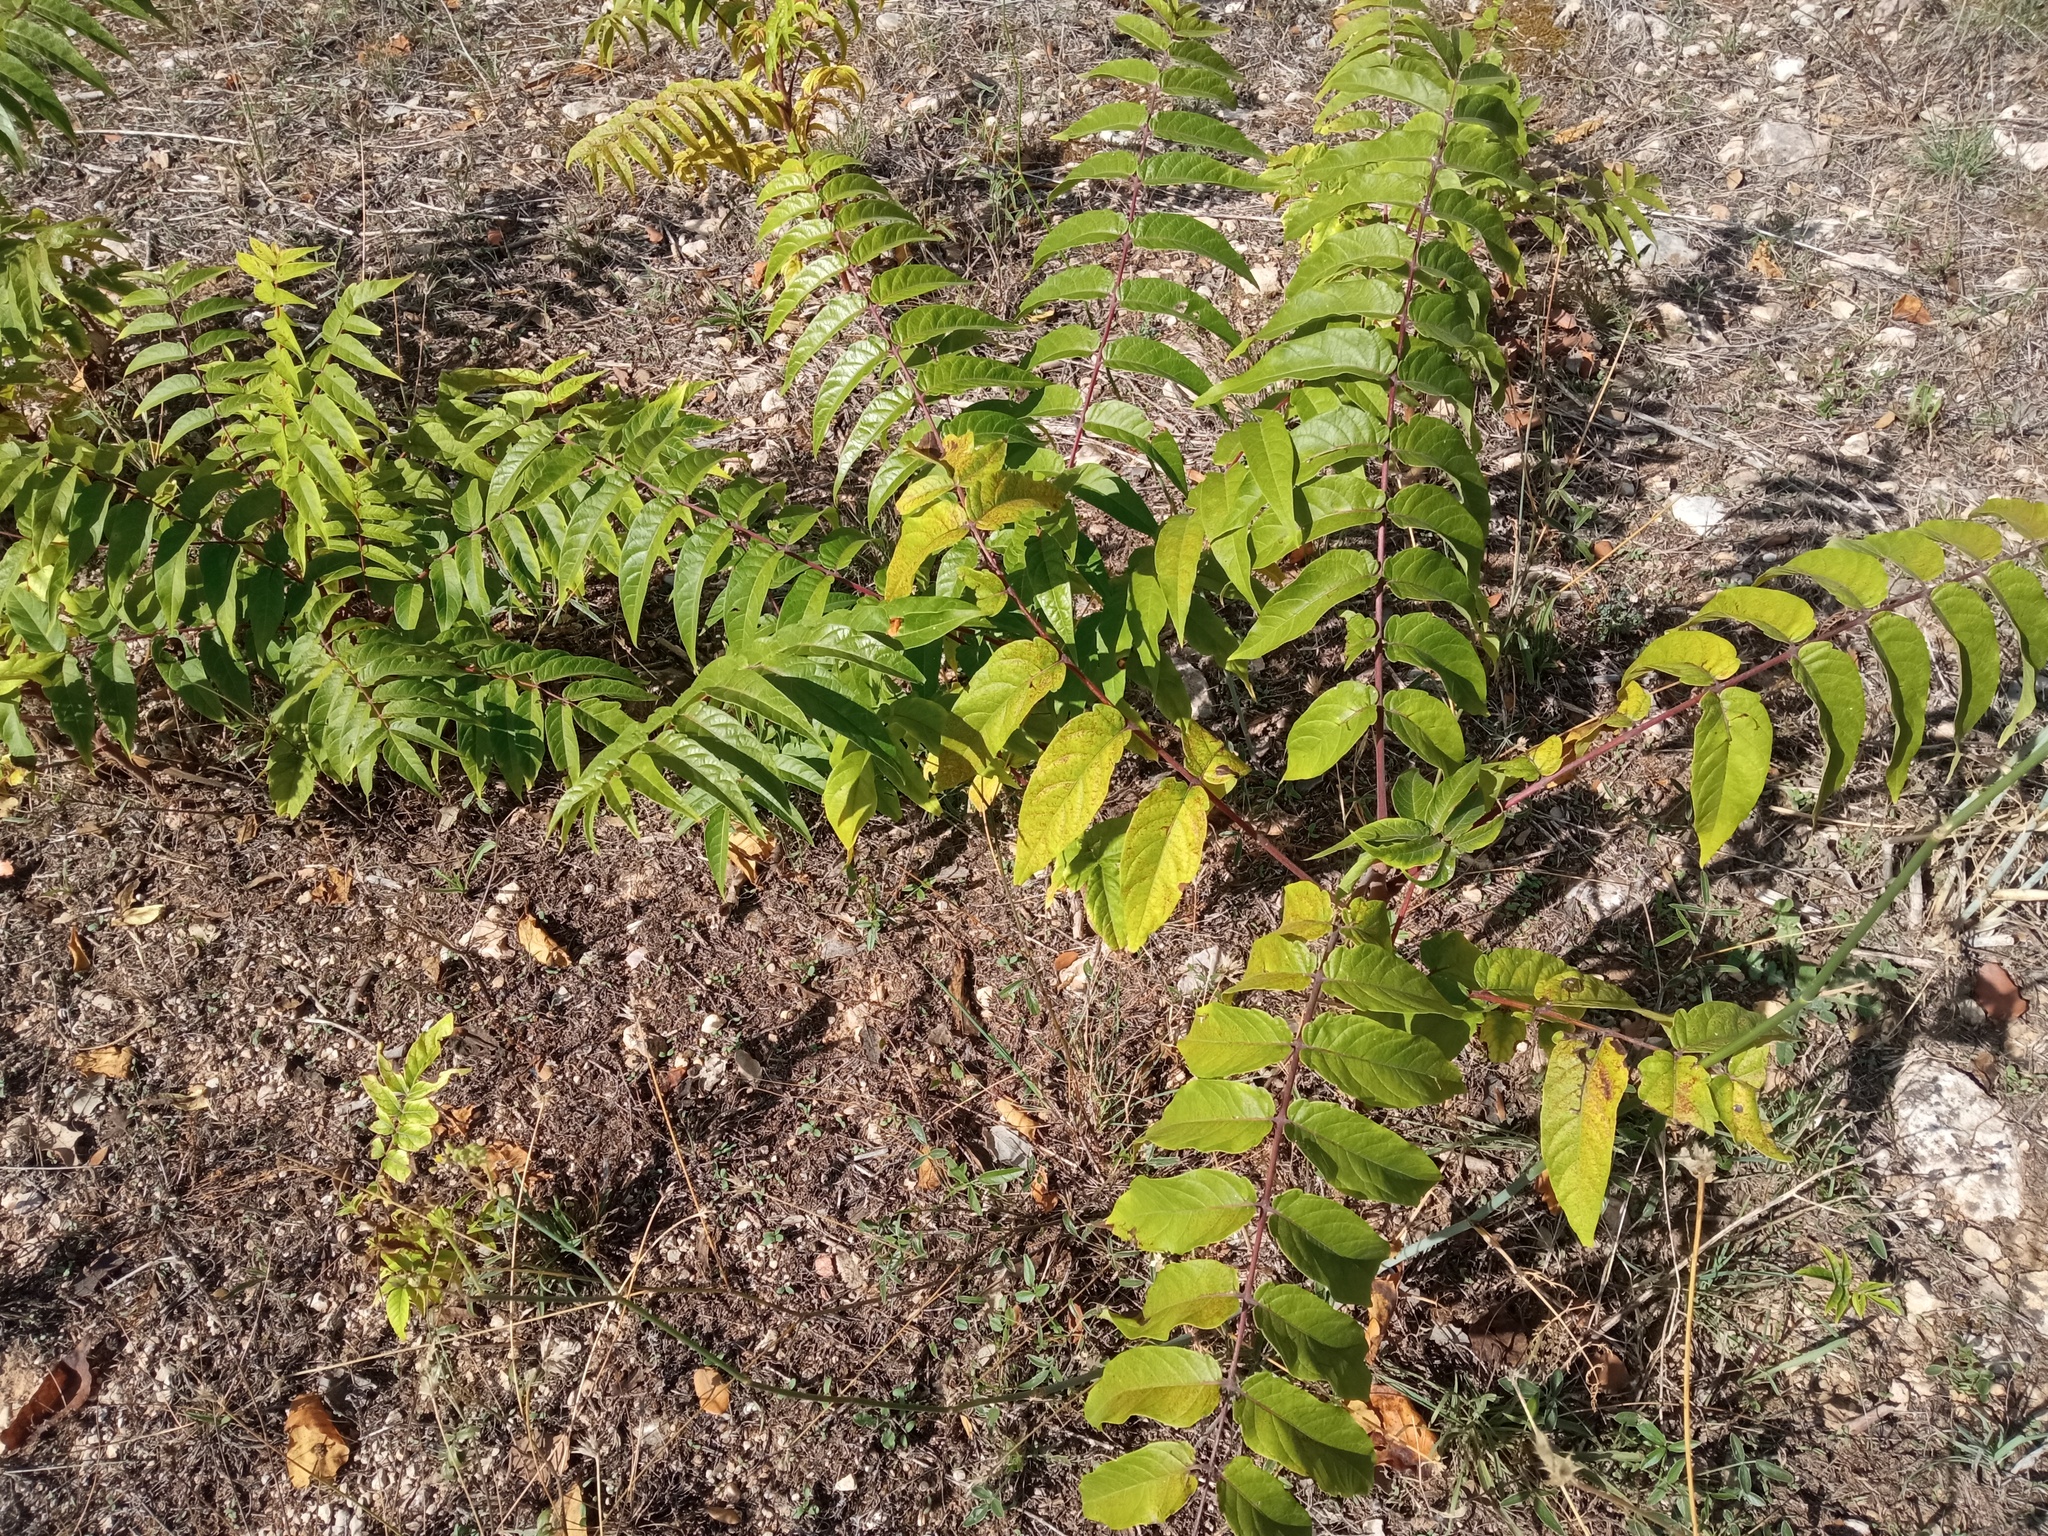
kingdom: Plantae
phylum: Tracheophyta
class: Magnoliopsida
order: Sapindales
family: Simaroubaceae
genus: Ailanthus
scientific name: Ailanthus altissima
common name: Tree-of-heaven
